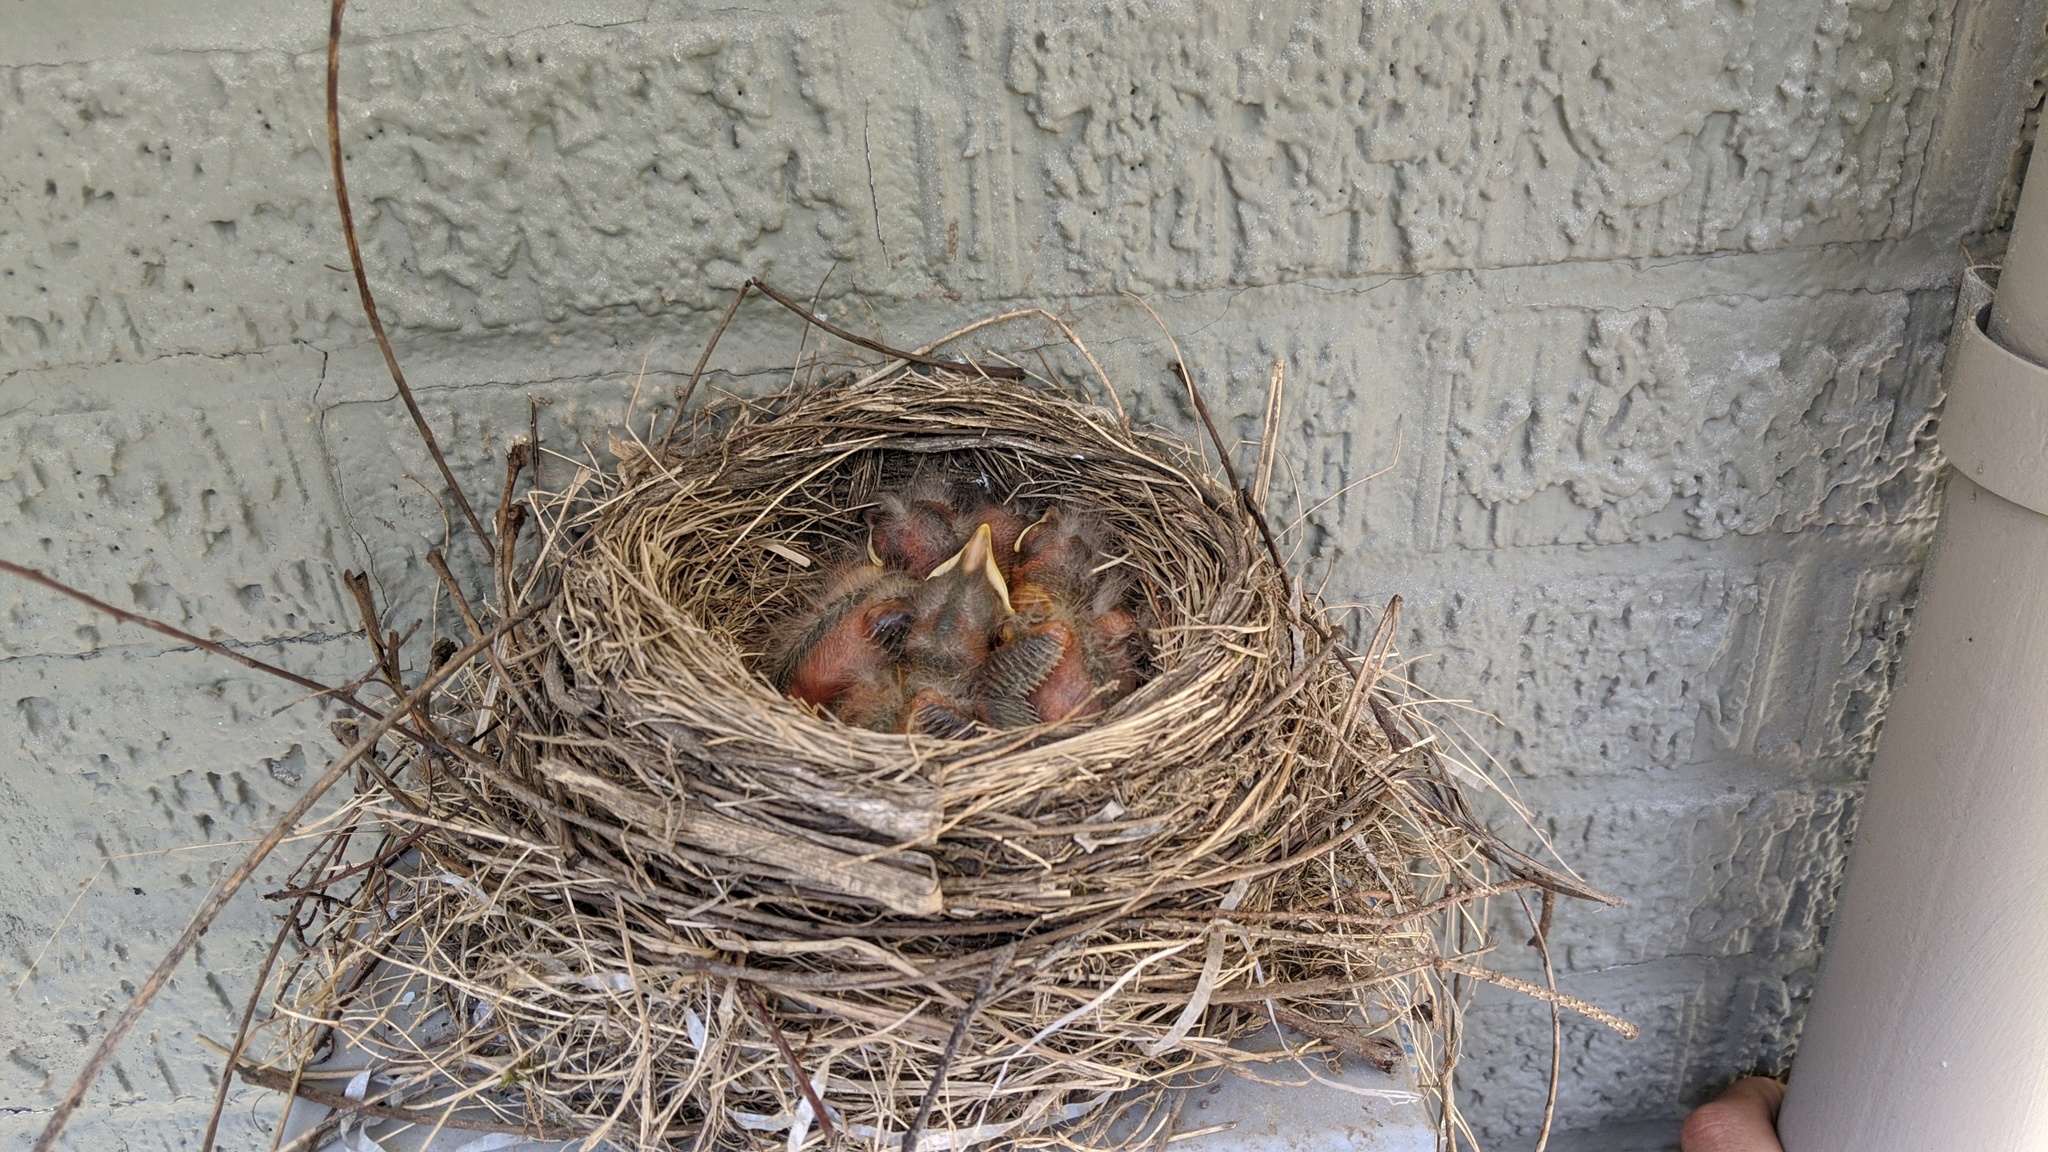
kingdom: Animalia
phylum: Chordata
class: Aves
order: Passeriformes
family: Turdidae
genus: Turdus
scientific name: Turdus migratorius
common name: American robin
